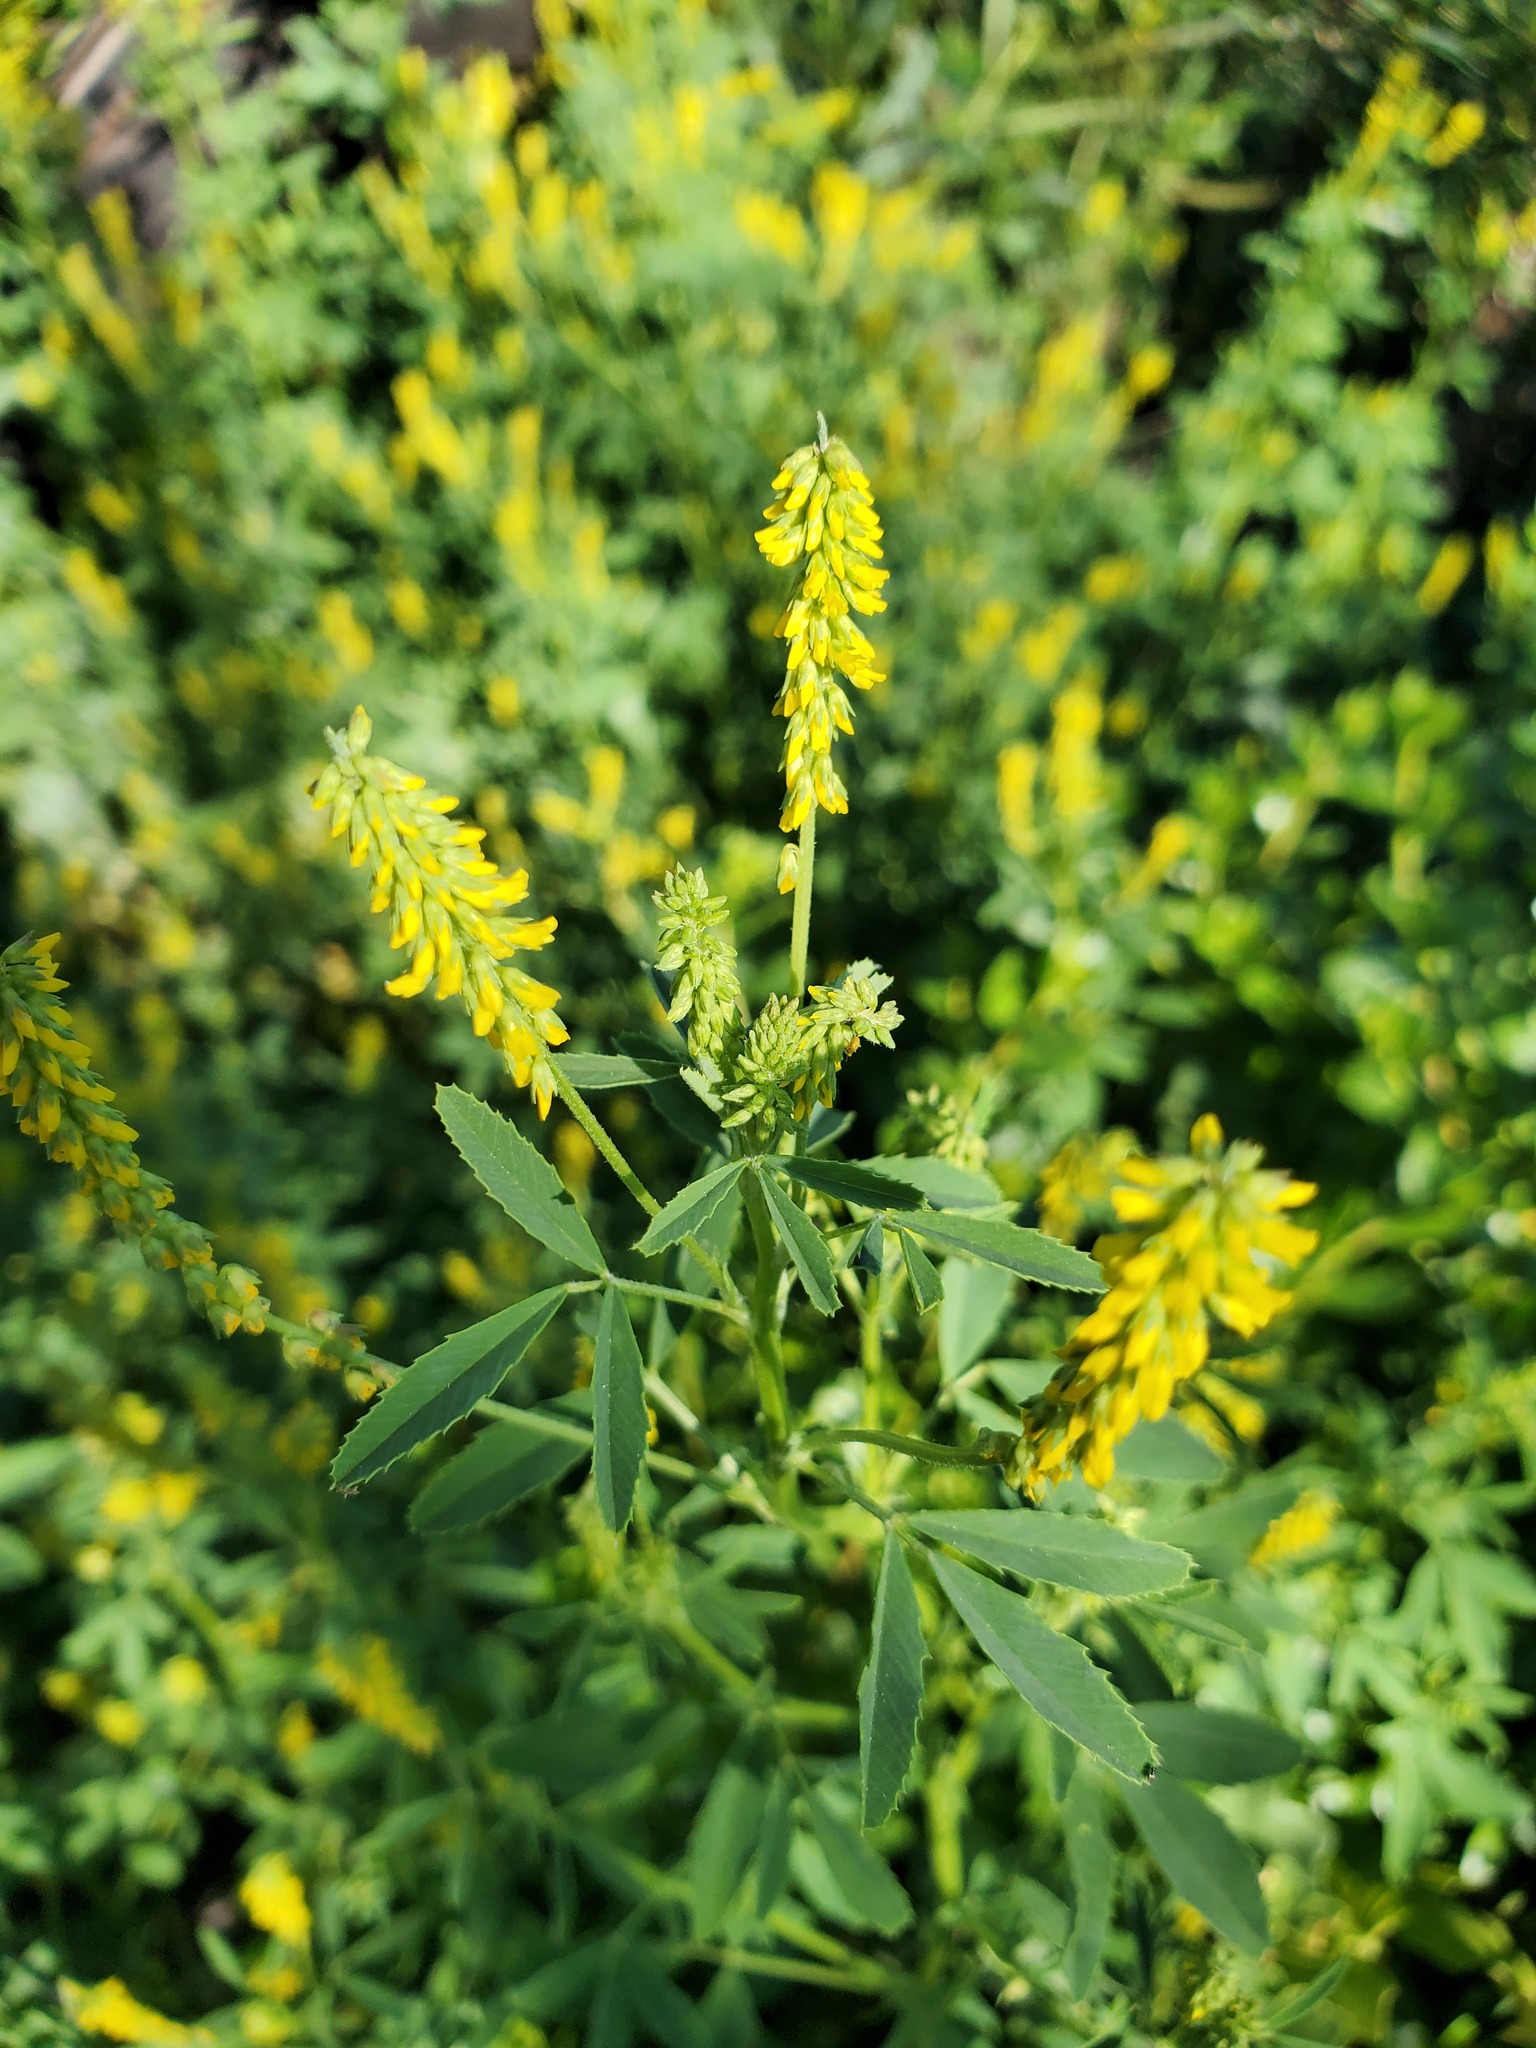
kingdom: Plantae
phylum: Tracheophyta
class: Magnoliopsida
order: Fabales
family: Fabaceae
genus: Melilotus
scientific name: Melilotus indicus
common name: Small melilot
